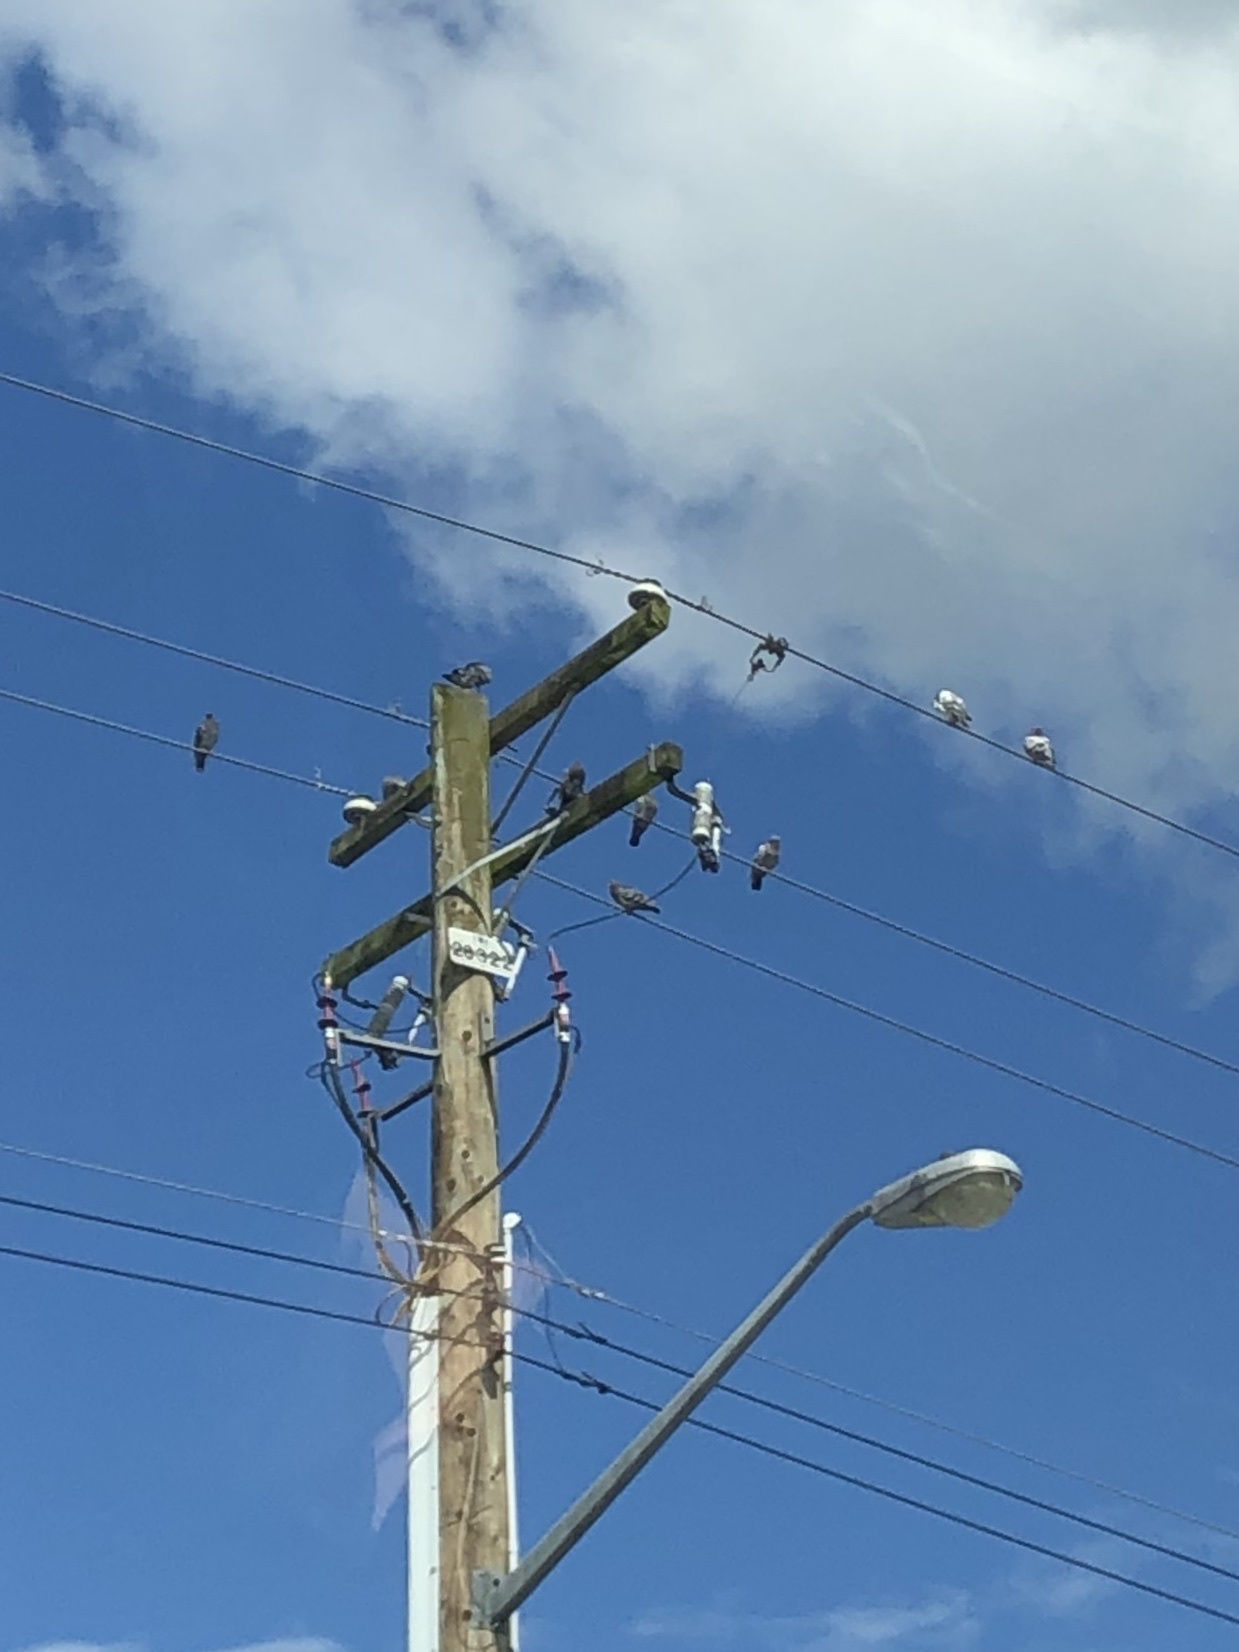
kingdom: Animalia
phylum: Chordata
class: Aves
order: Columbiformes
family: Columbidae
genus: Columba
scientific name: Columba livia
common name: Rock pigeon
